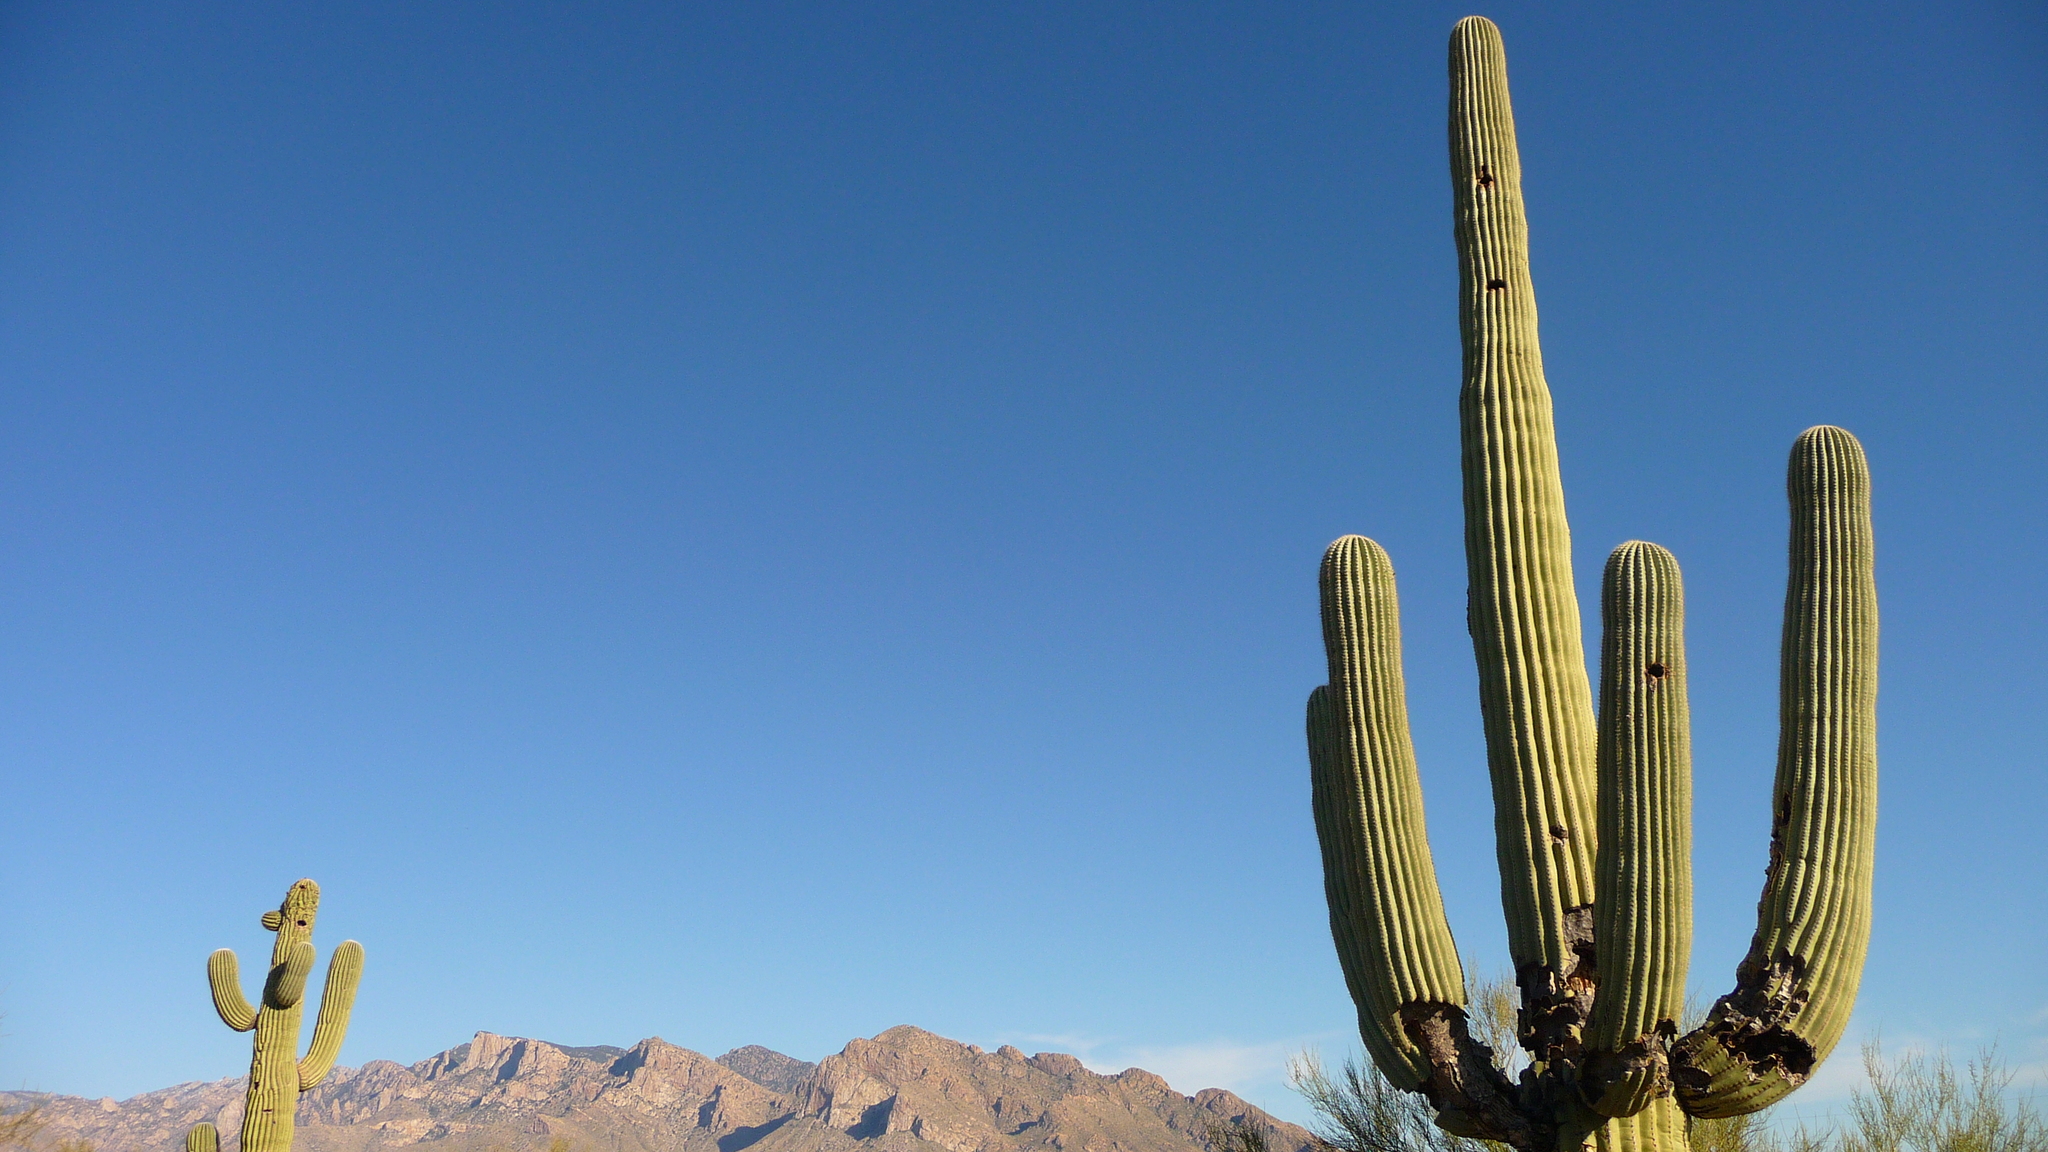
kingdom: Plantae
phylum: Tracheophyta
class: Magnoliopsida
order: Caryophyllales
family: Cactaceae
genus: Carnegiea
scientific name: Carnegiea gigantea
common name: Saguaro
